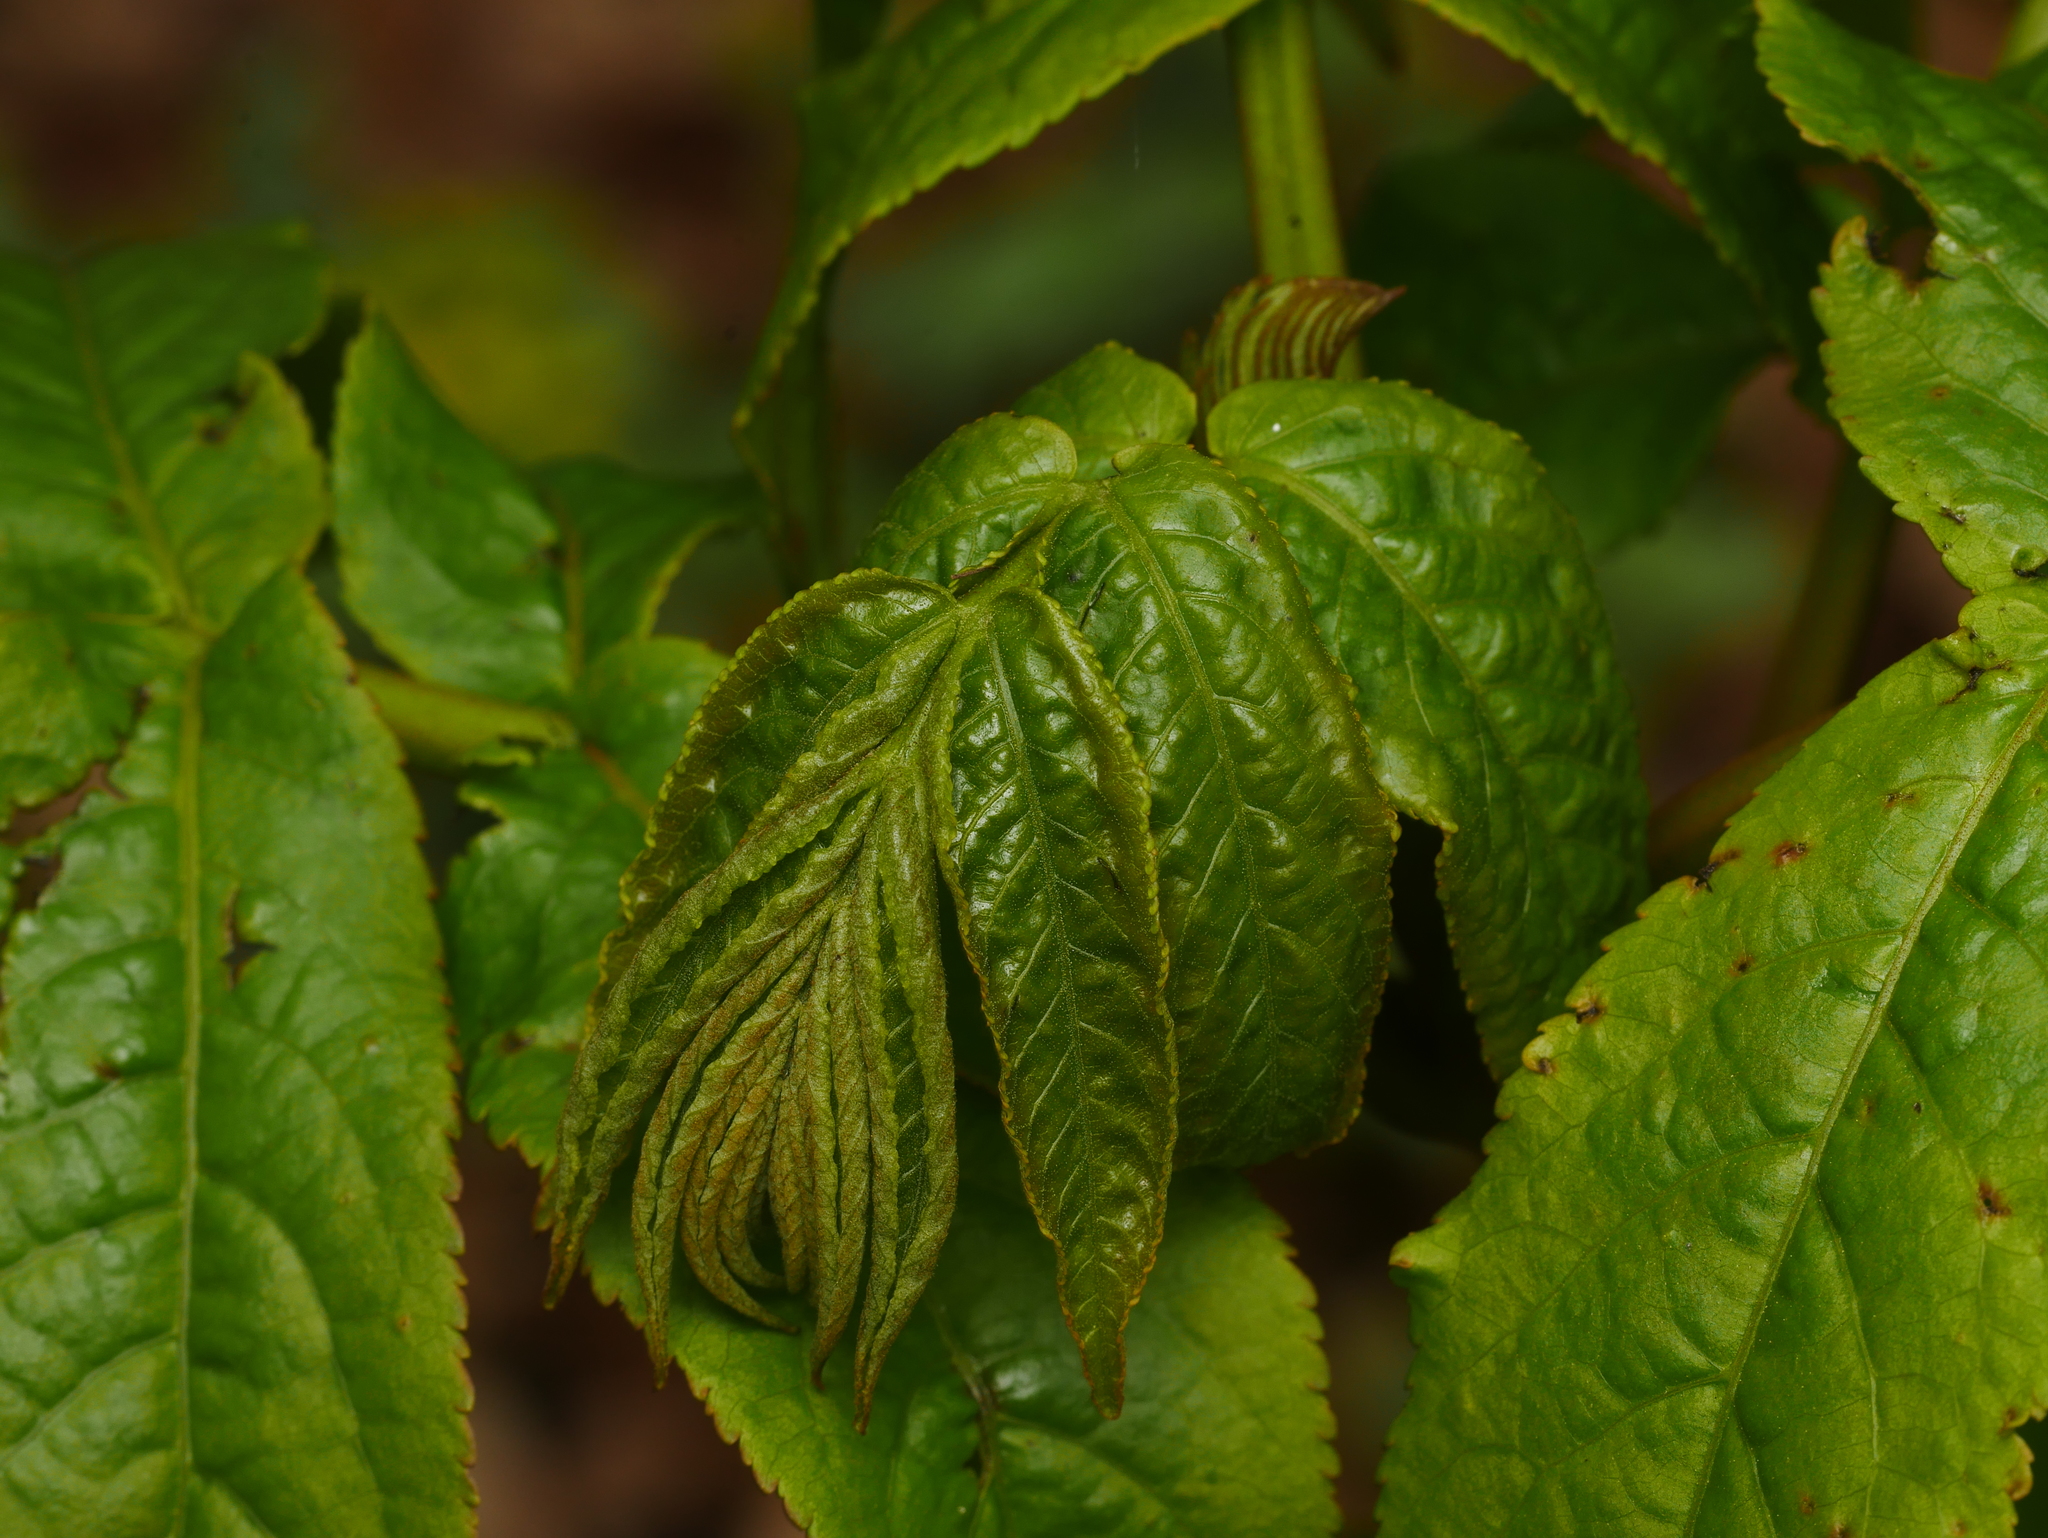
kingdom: Plantae
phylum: Tracheophyta
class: Magnoliopsida
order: Dipsacales
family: Viburnaceae
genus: Sambucus
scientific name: Sambucus racemosa
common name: Red-berried elder
